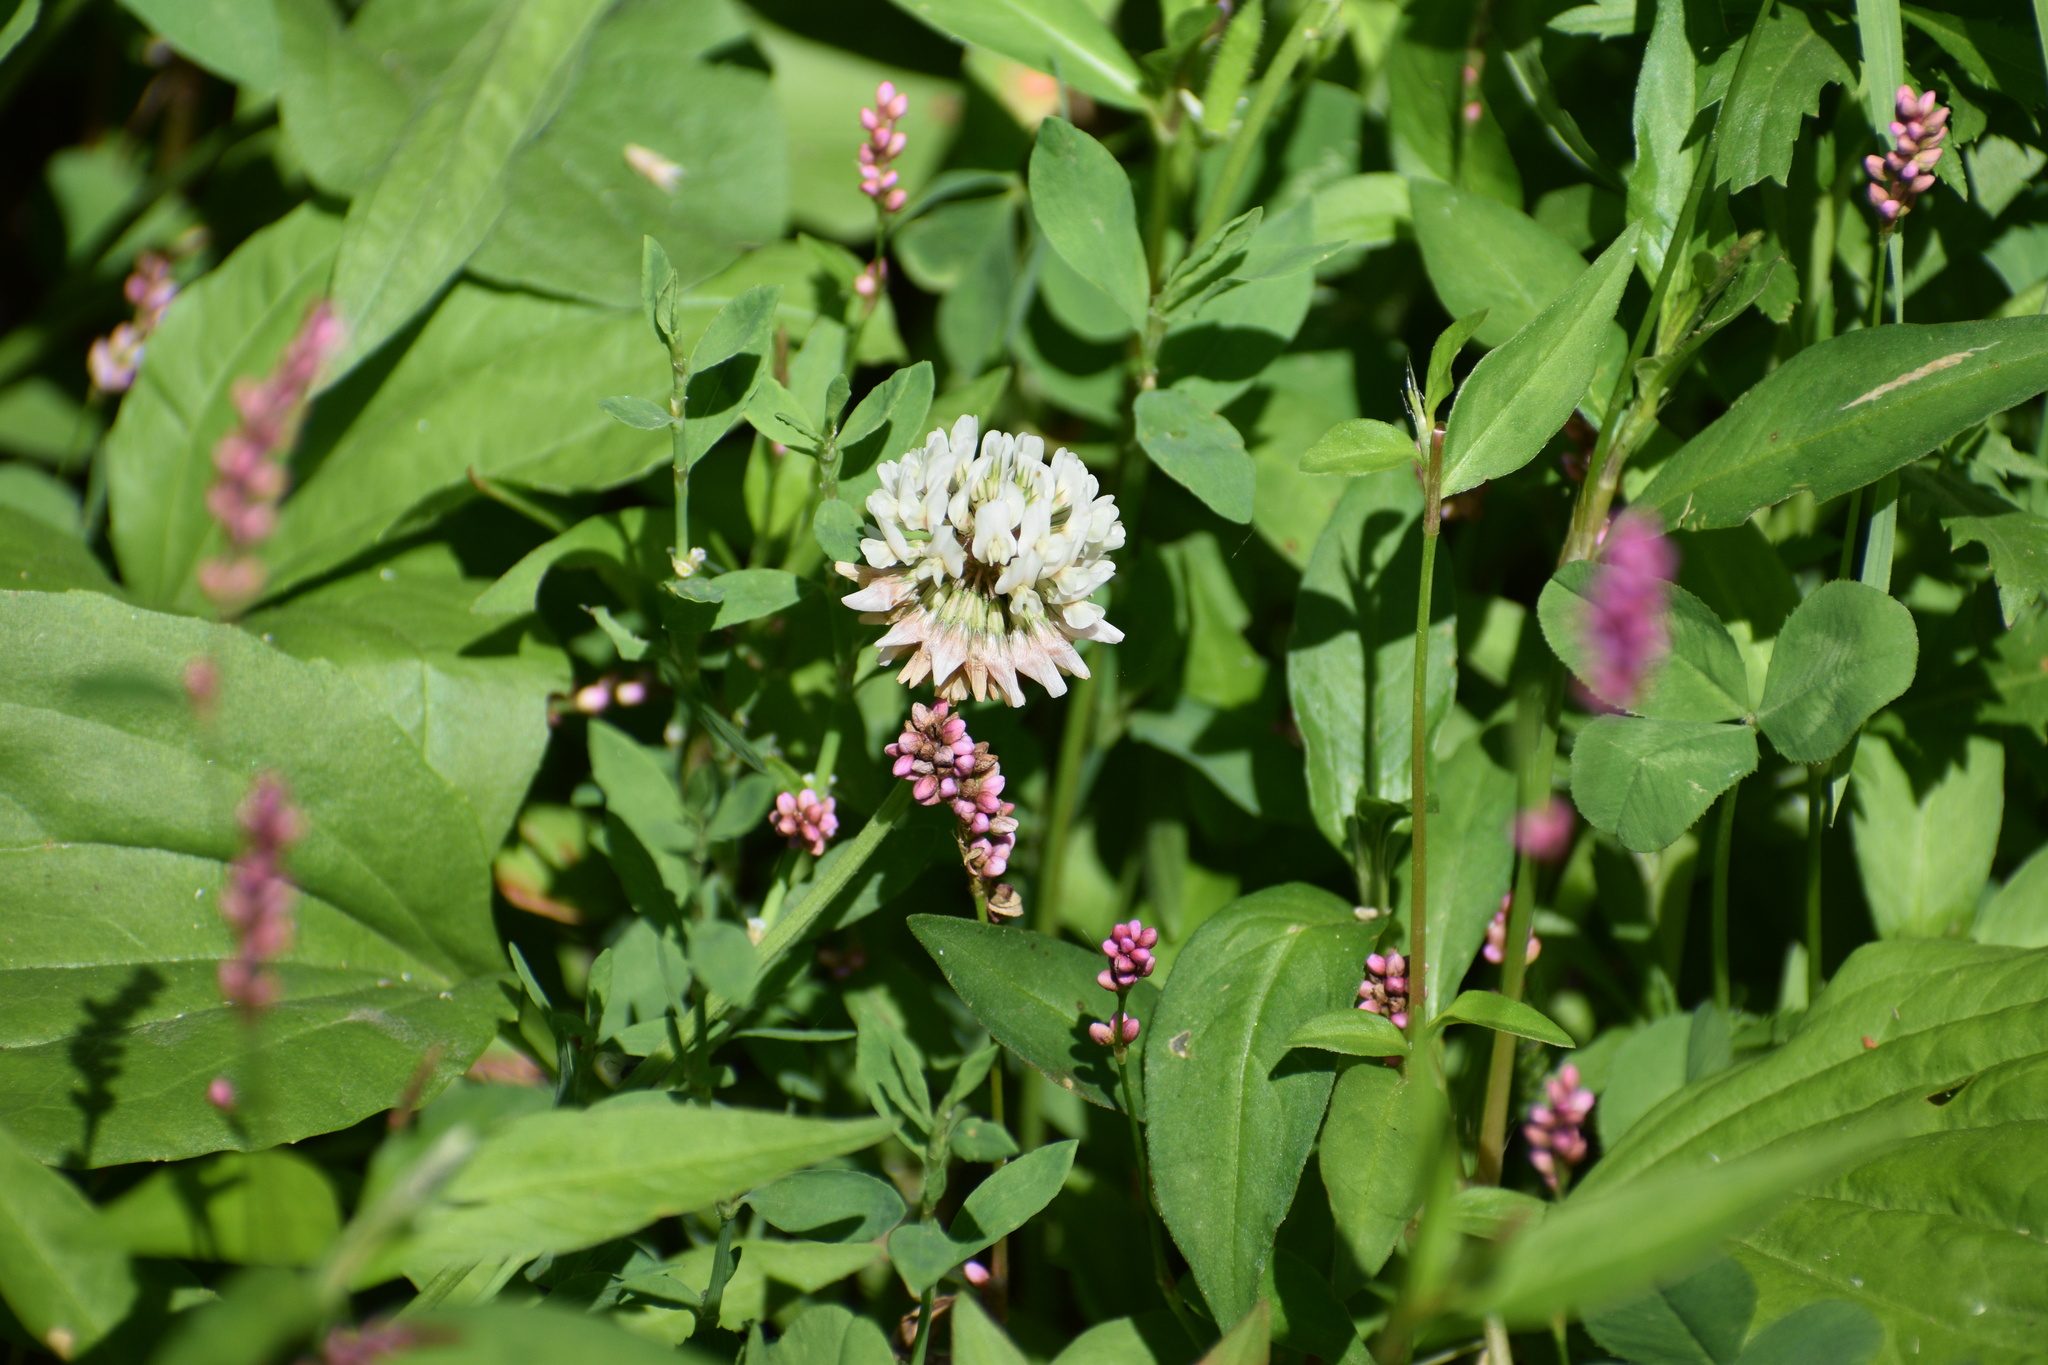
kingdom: Plantae
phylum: Tracheophyta
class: Magnoliopsida
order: Fabales
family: Fabaceae
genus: Trifolium
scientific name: Trifolium repens
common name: White clover
